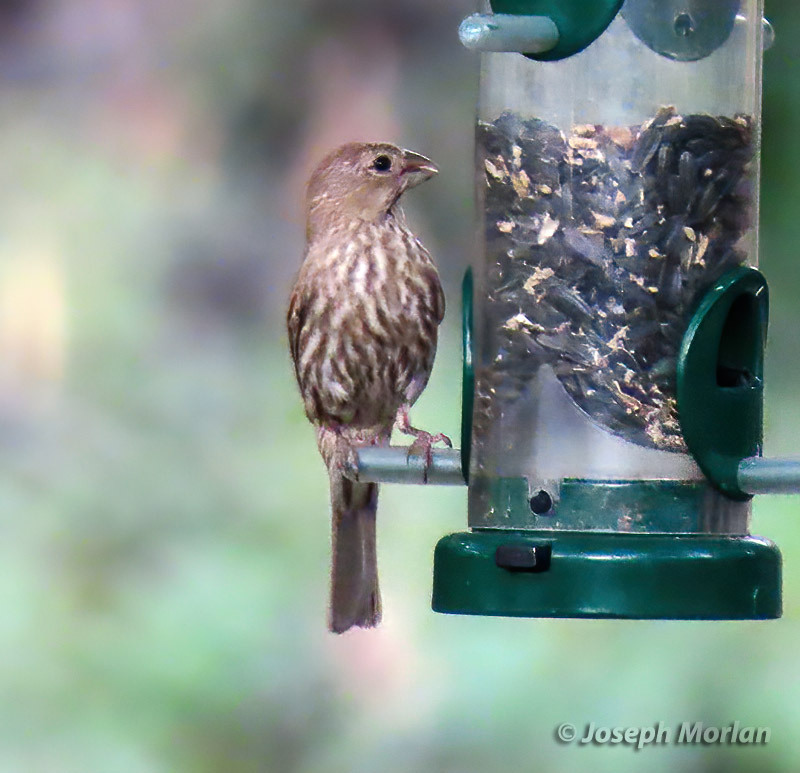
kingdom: Animalia
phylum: Chordata
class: Aves
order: Passeriformes
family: Fringillidae
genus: Haemorhous
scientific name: Haemorhous mexicanus
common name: House finch
